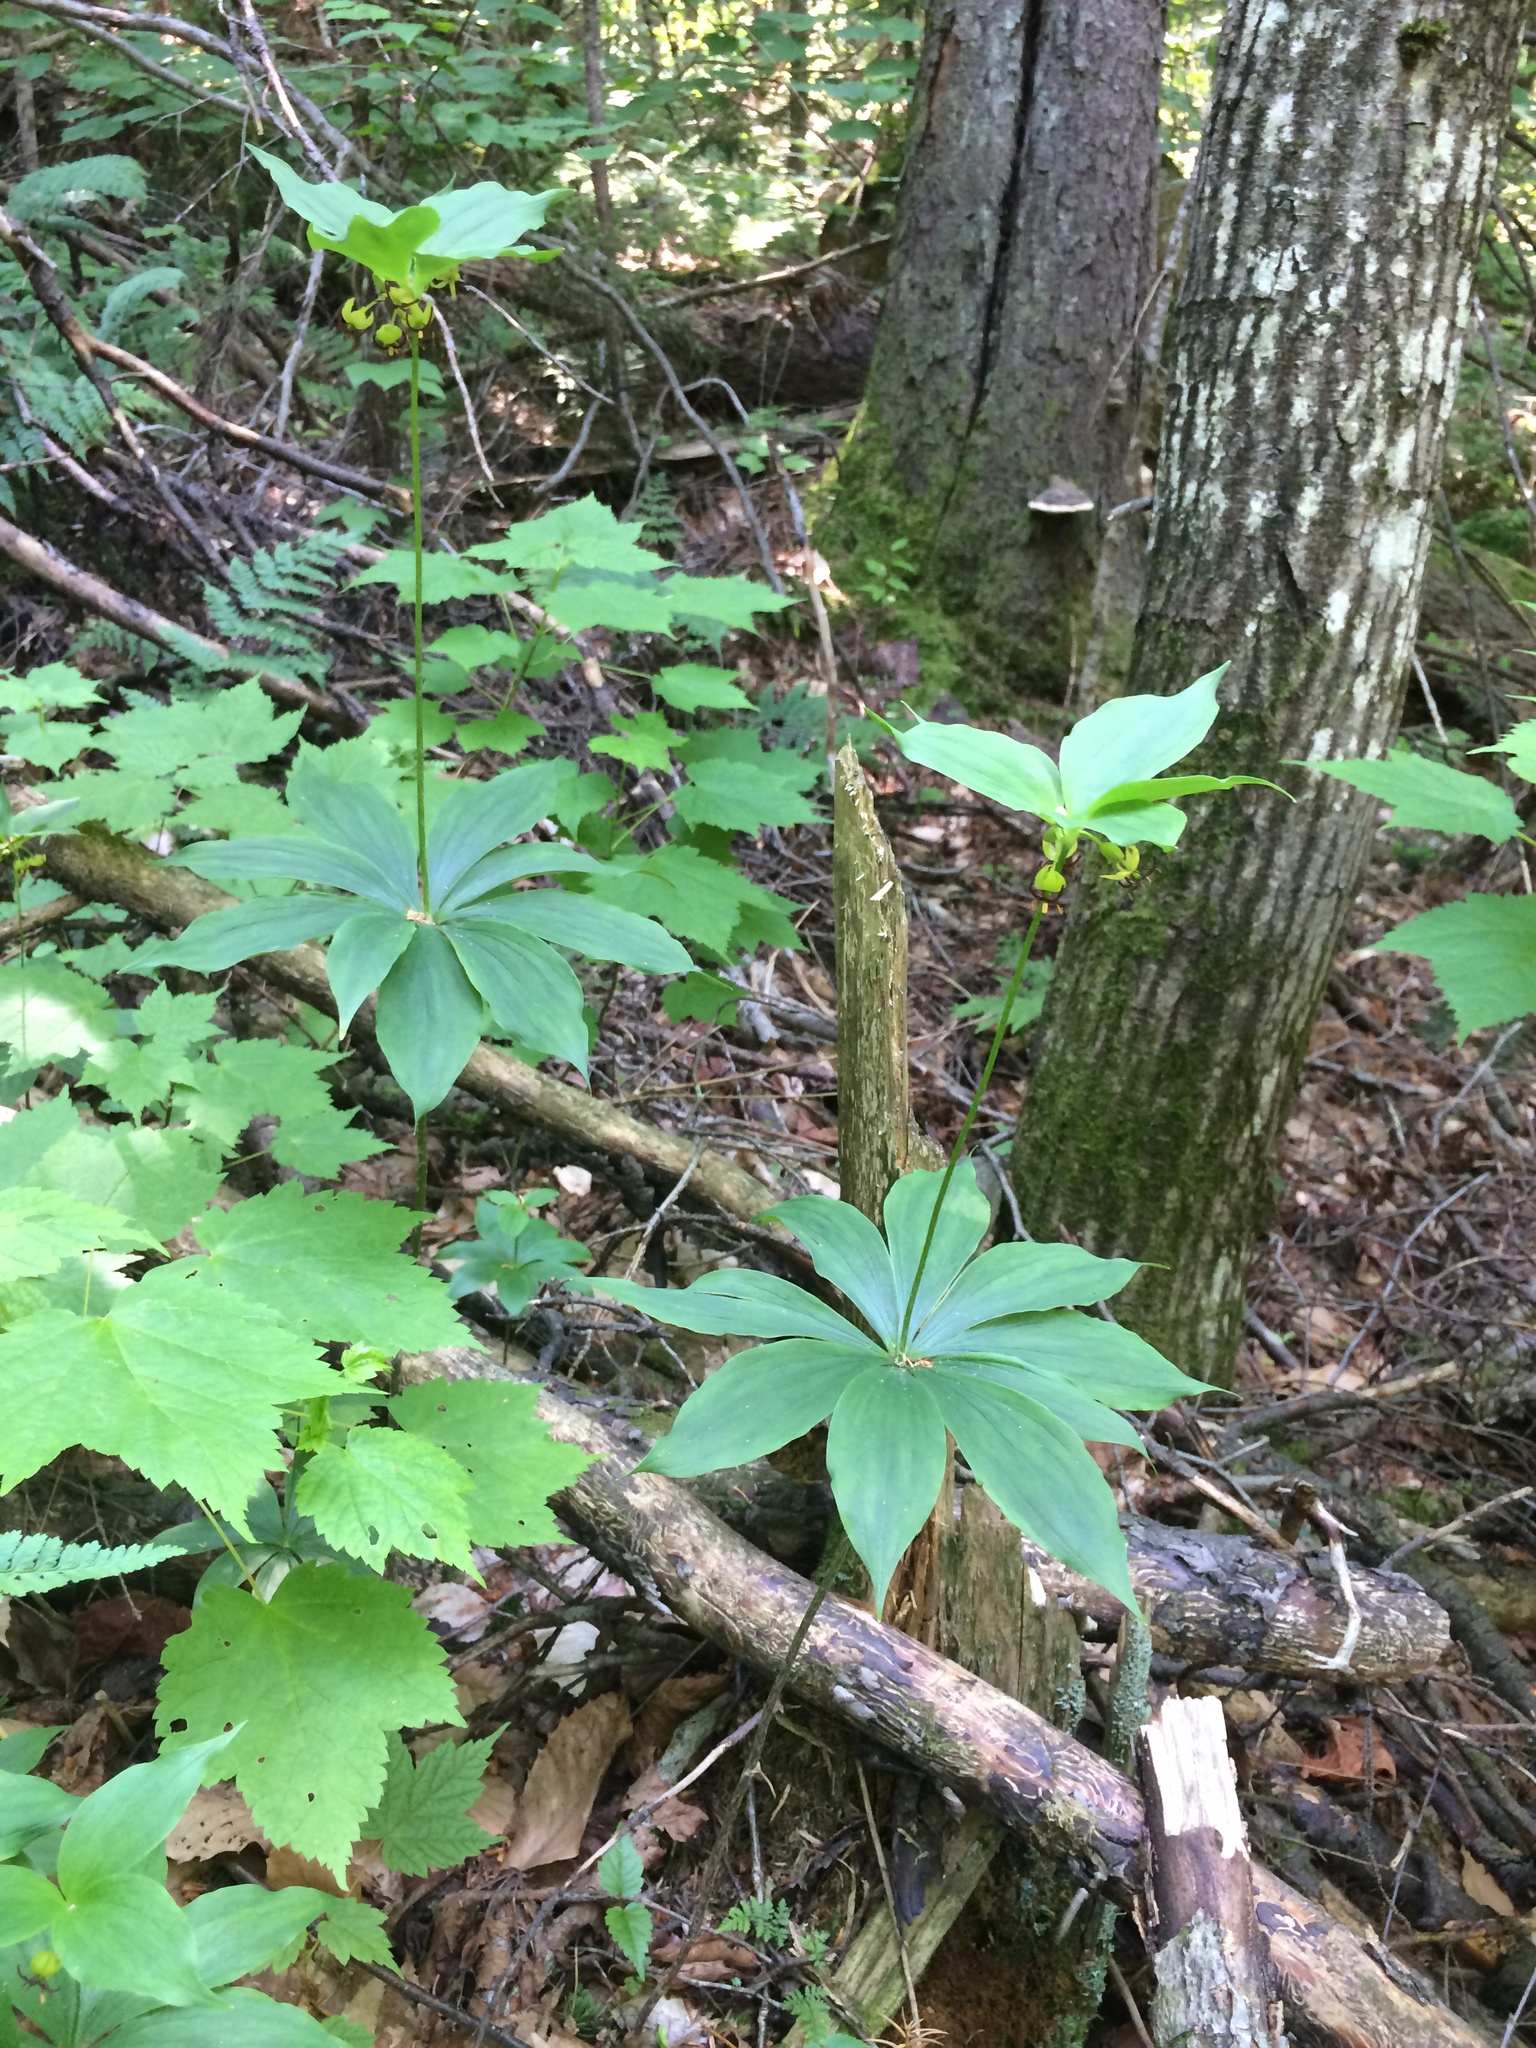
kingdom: Plantae
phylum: Tracheophyta
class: Liliopsida
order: Liliales
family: Liliaceae
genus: Medeola
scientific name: Medeola virginiana
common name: Indian cucumber-root
